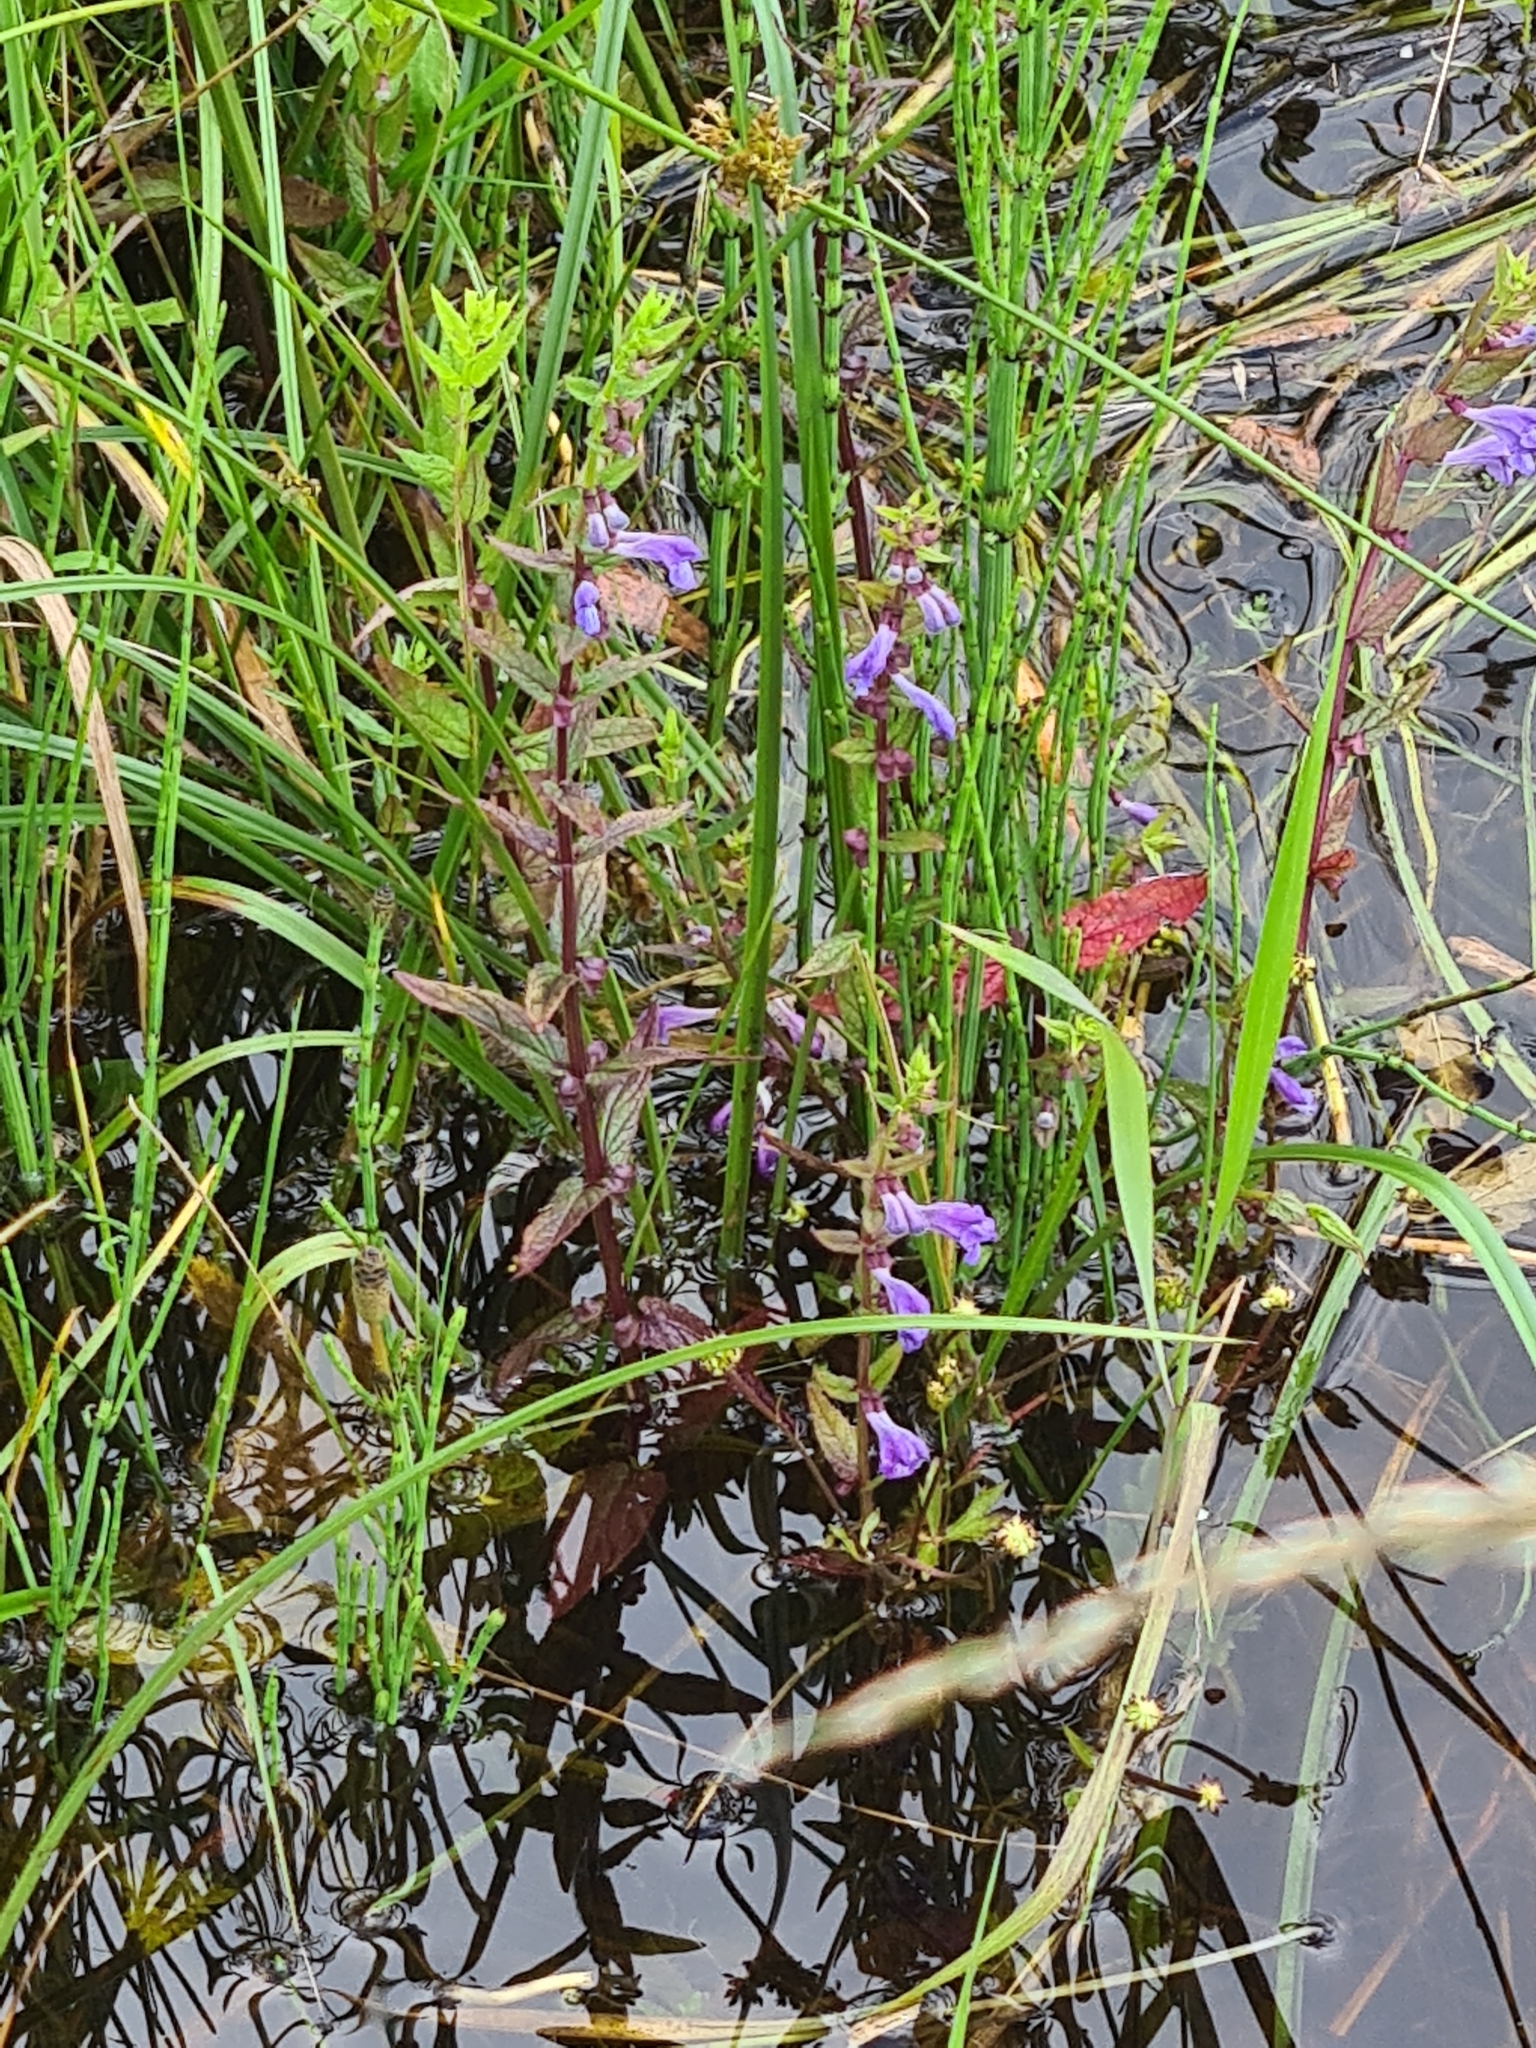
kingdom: Plantae
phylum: Tracheophyta
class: Magnoliopsida
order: Lamiales
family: Lamiaceae
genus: Scutellaria
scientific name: Scutellaria galericulata
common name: Skullcap
